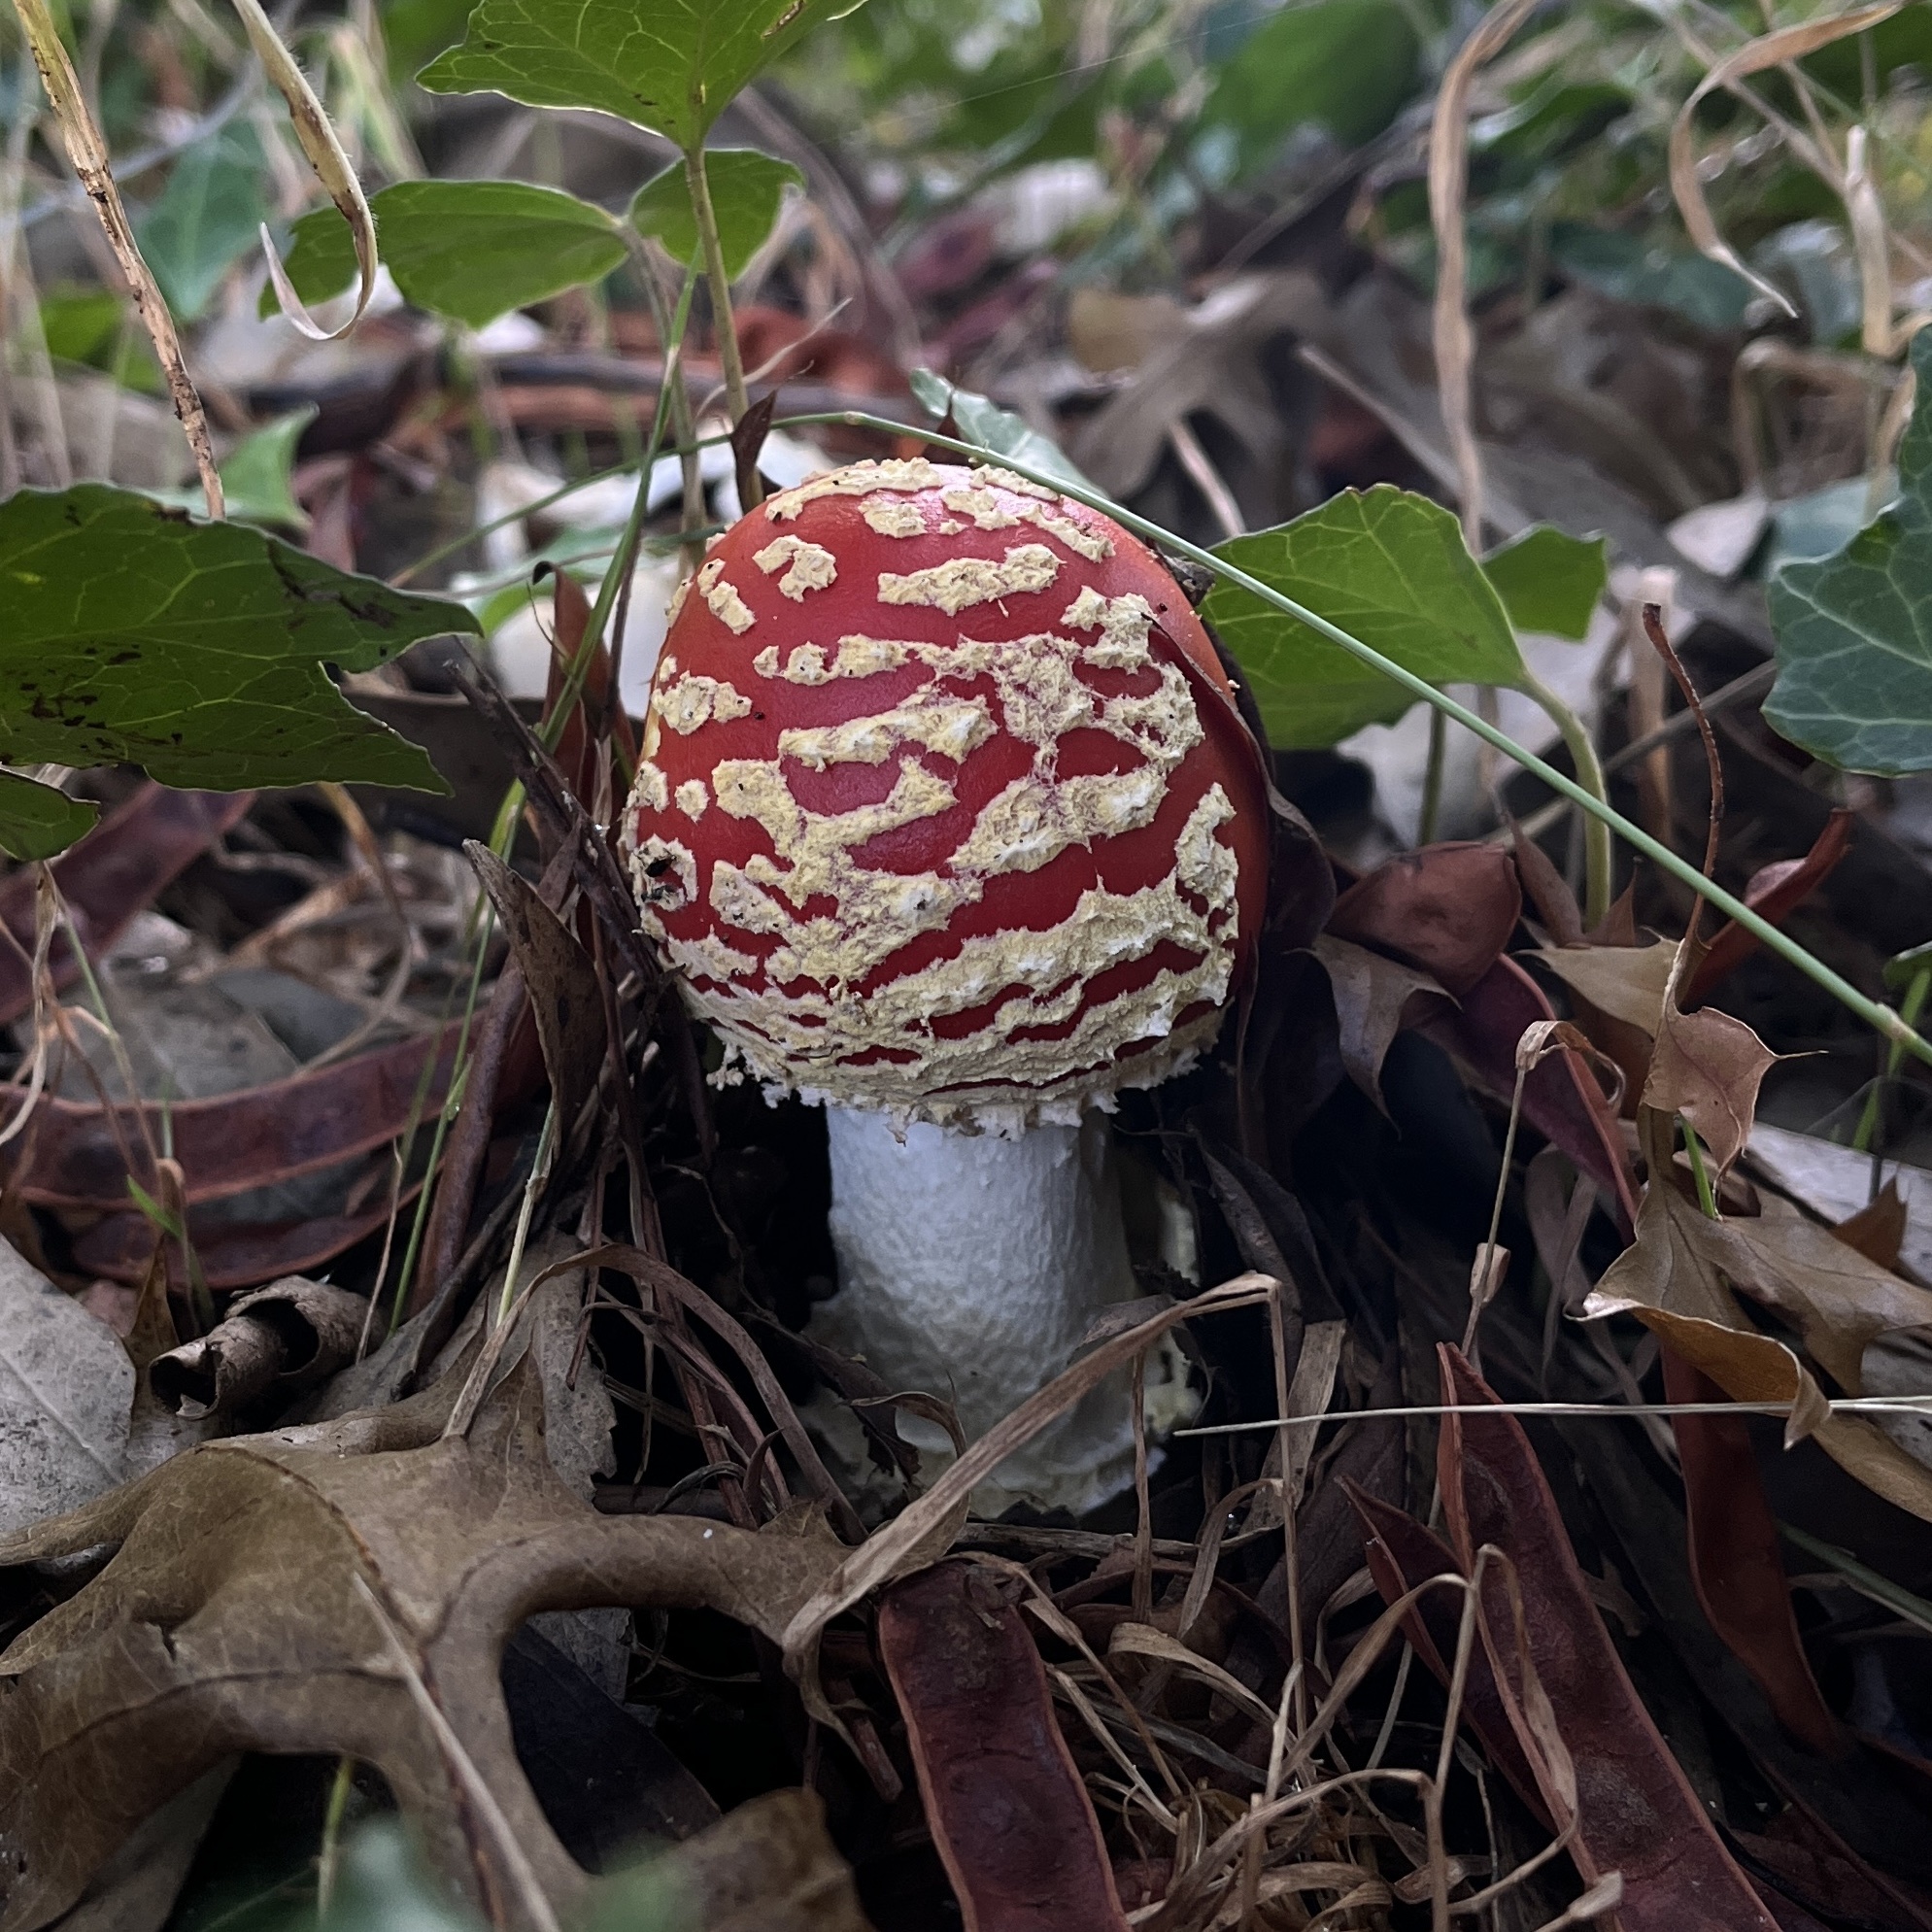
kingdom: Fungi
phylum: Basidiomycota
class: Agaricomycetes
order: Agaricales
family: Amanitaceae
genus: Amanita
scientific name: Amanita muscaria
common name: Fly agaric
